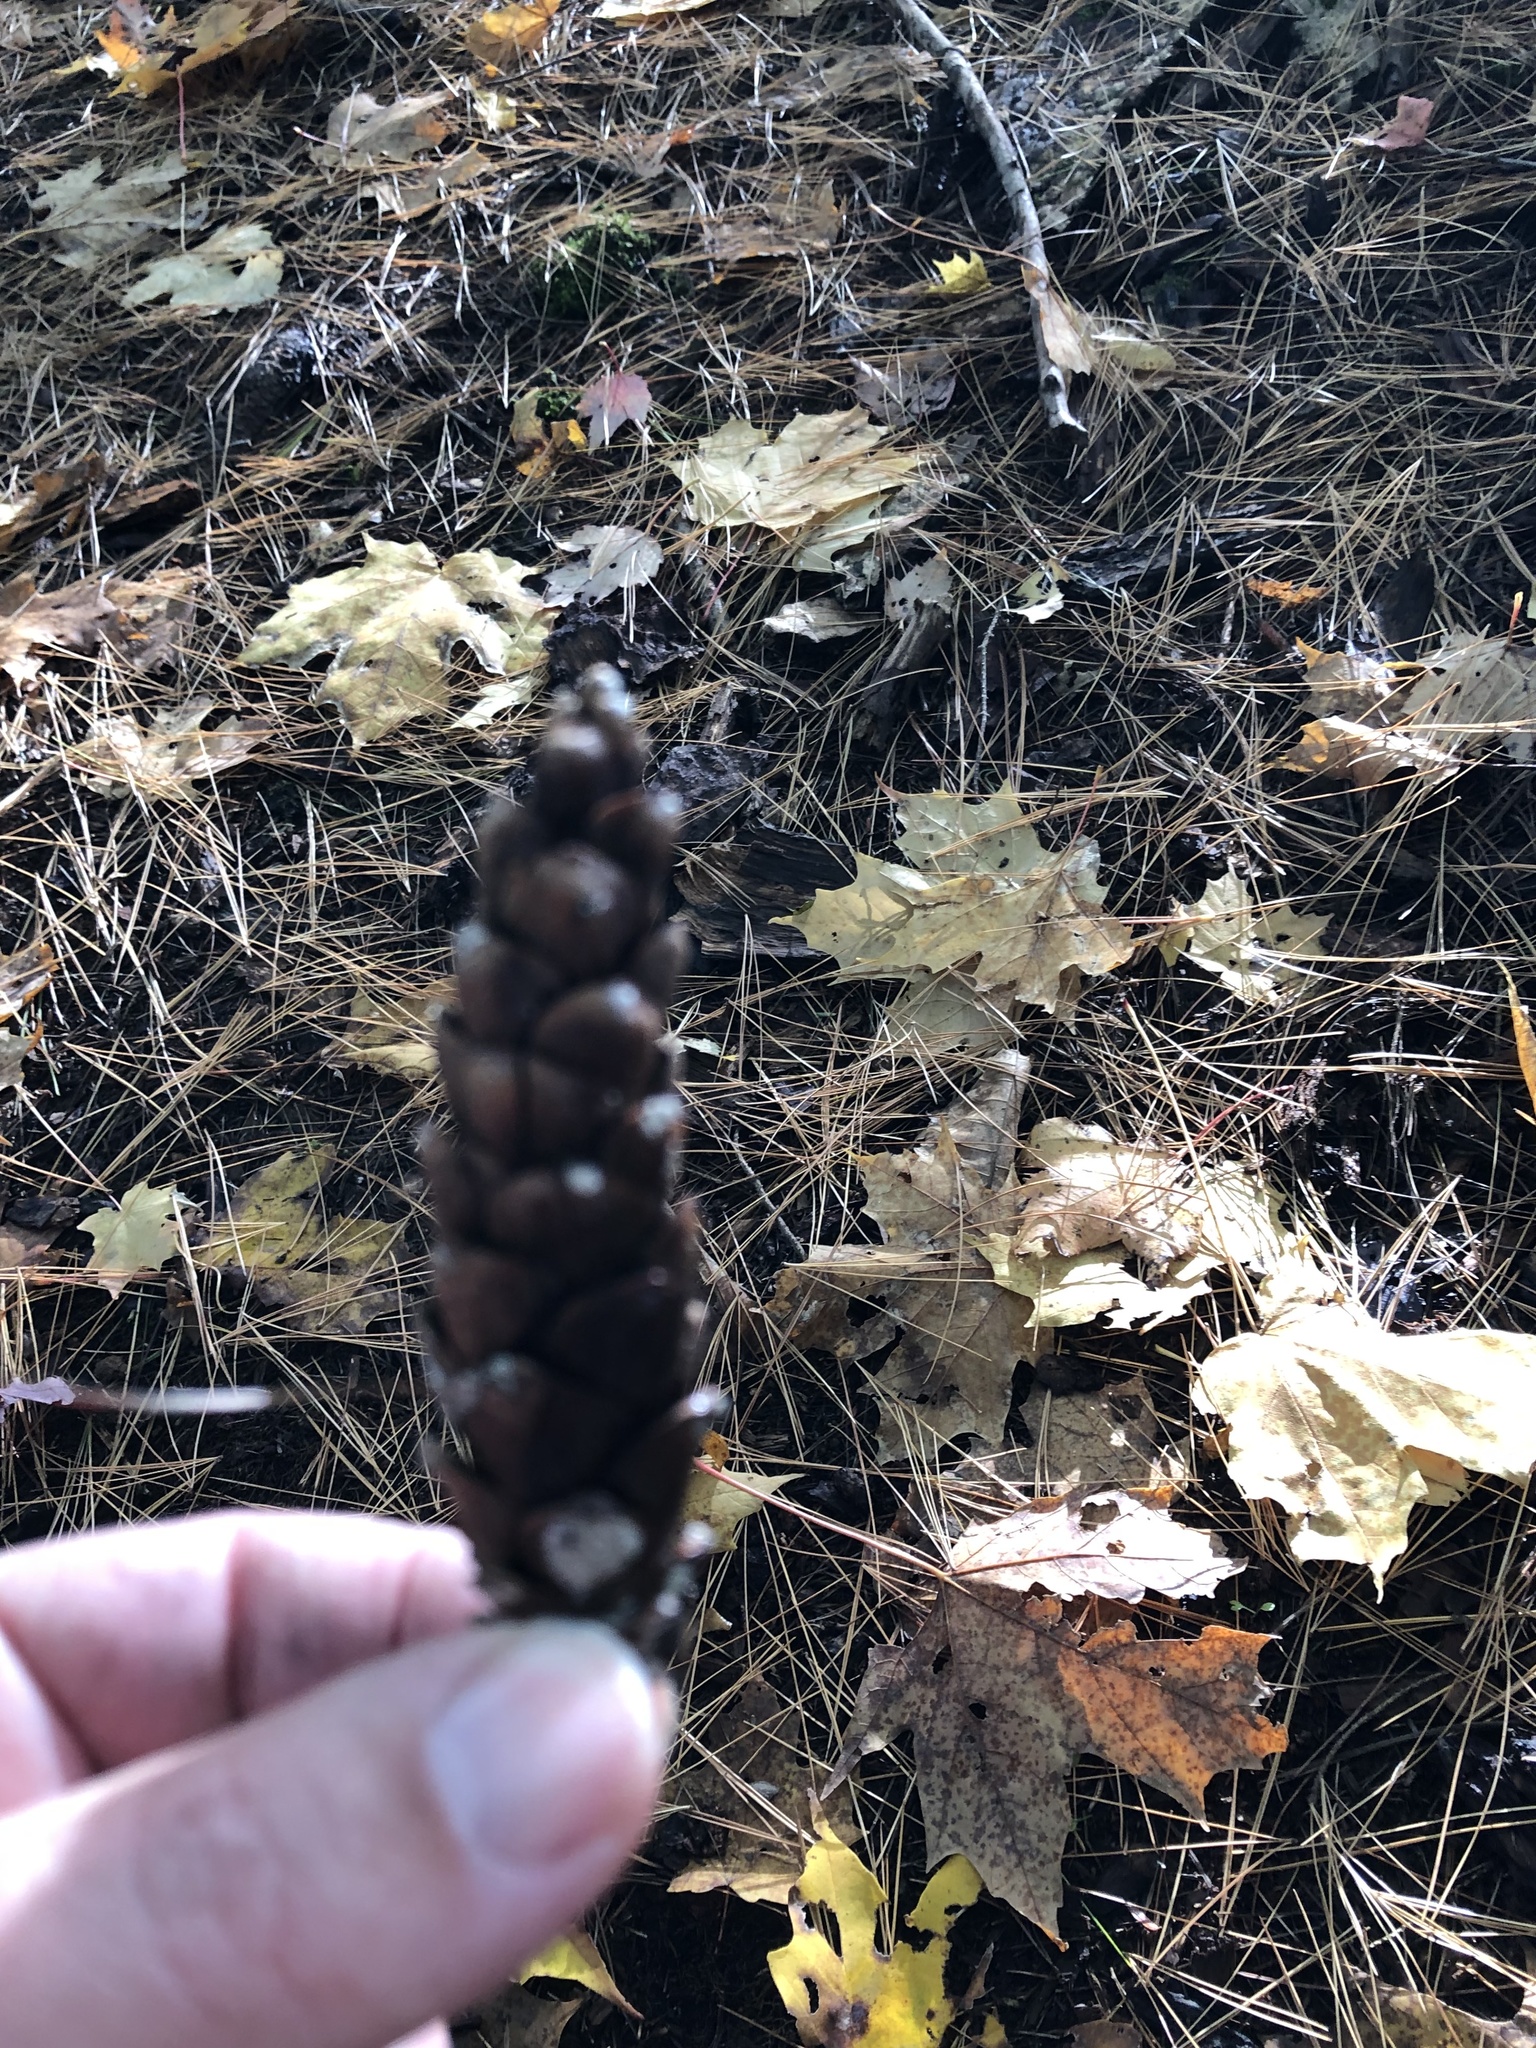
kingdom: Plantae
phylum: Tracheophyta
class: Pinopsida
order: Pinales
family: Pinaceae
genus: Pinus
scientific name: Pinus strobus
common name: Weymouth pine
